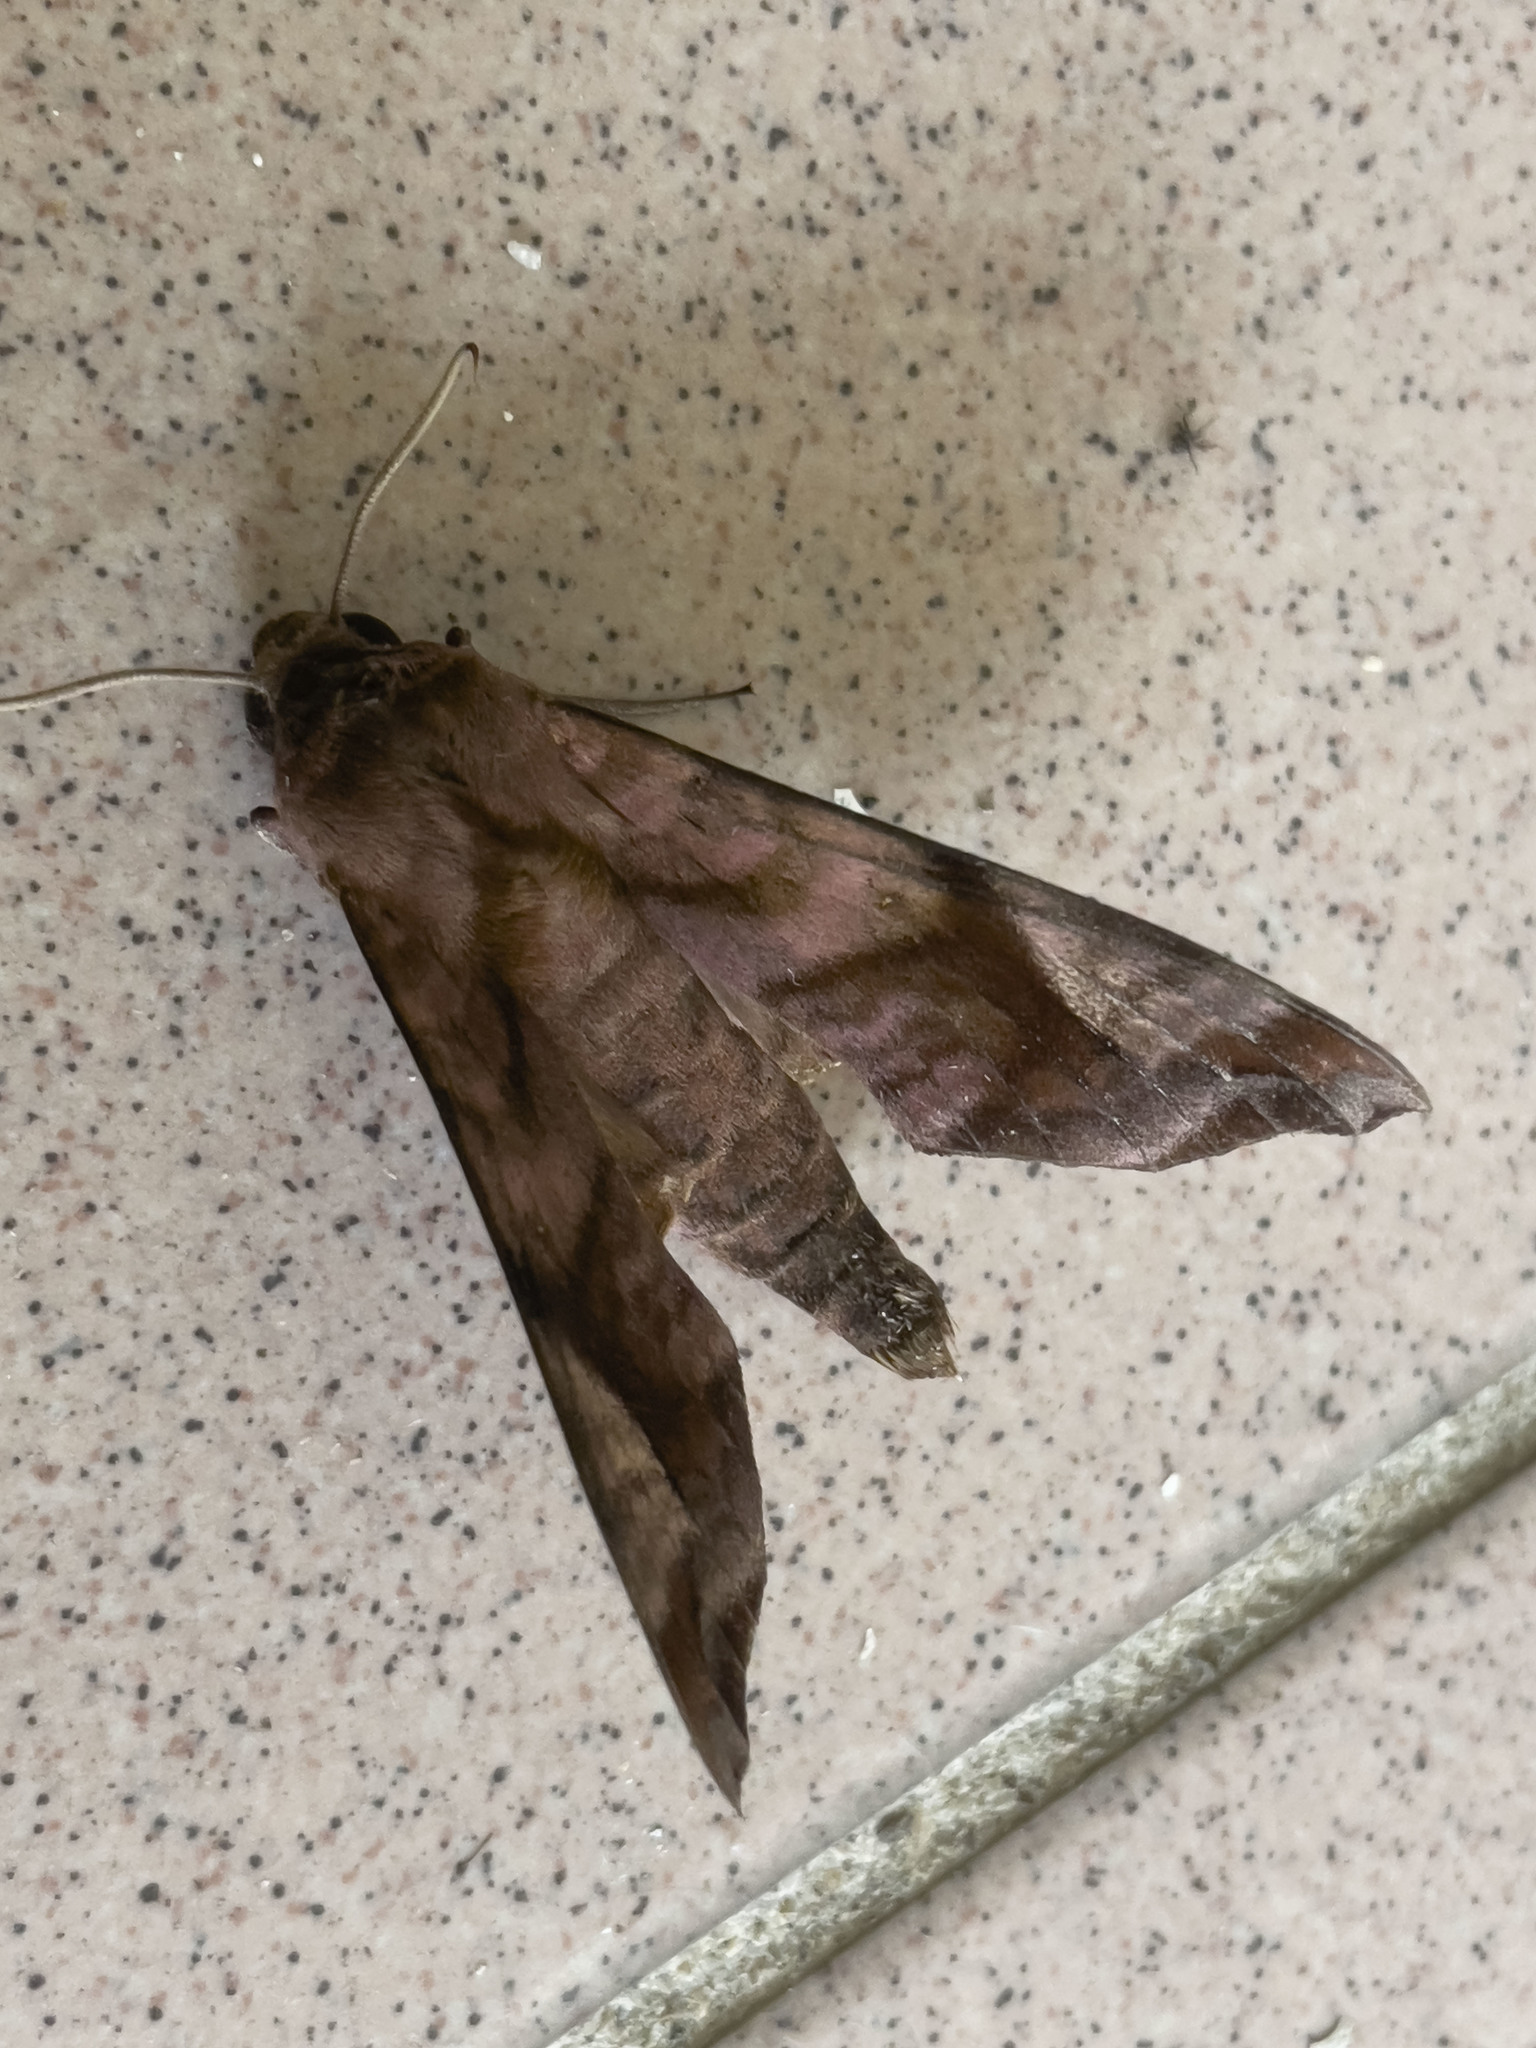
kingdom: Animalia
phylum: Arthropoda
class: Insecta
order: Lepidoptera
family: Sphingidae
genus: Acosmeryx
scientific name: Acosmeryx anceus
